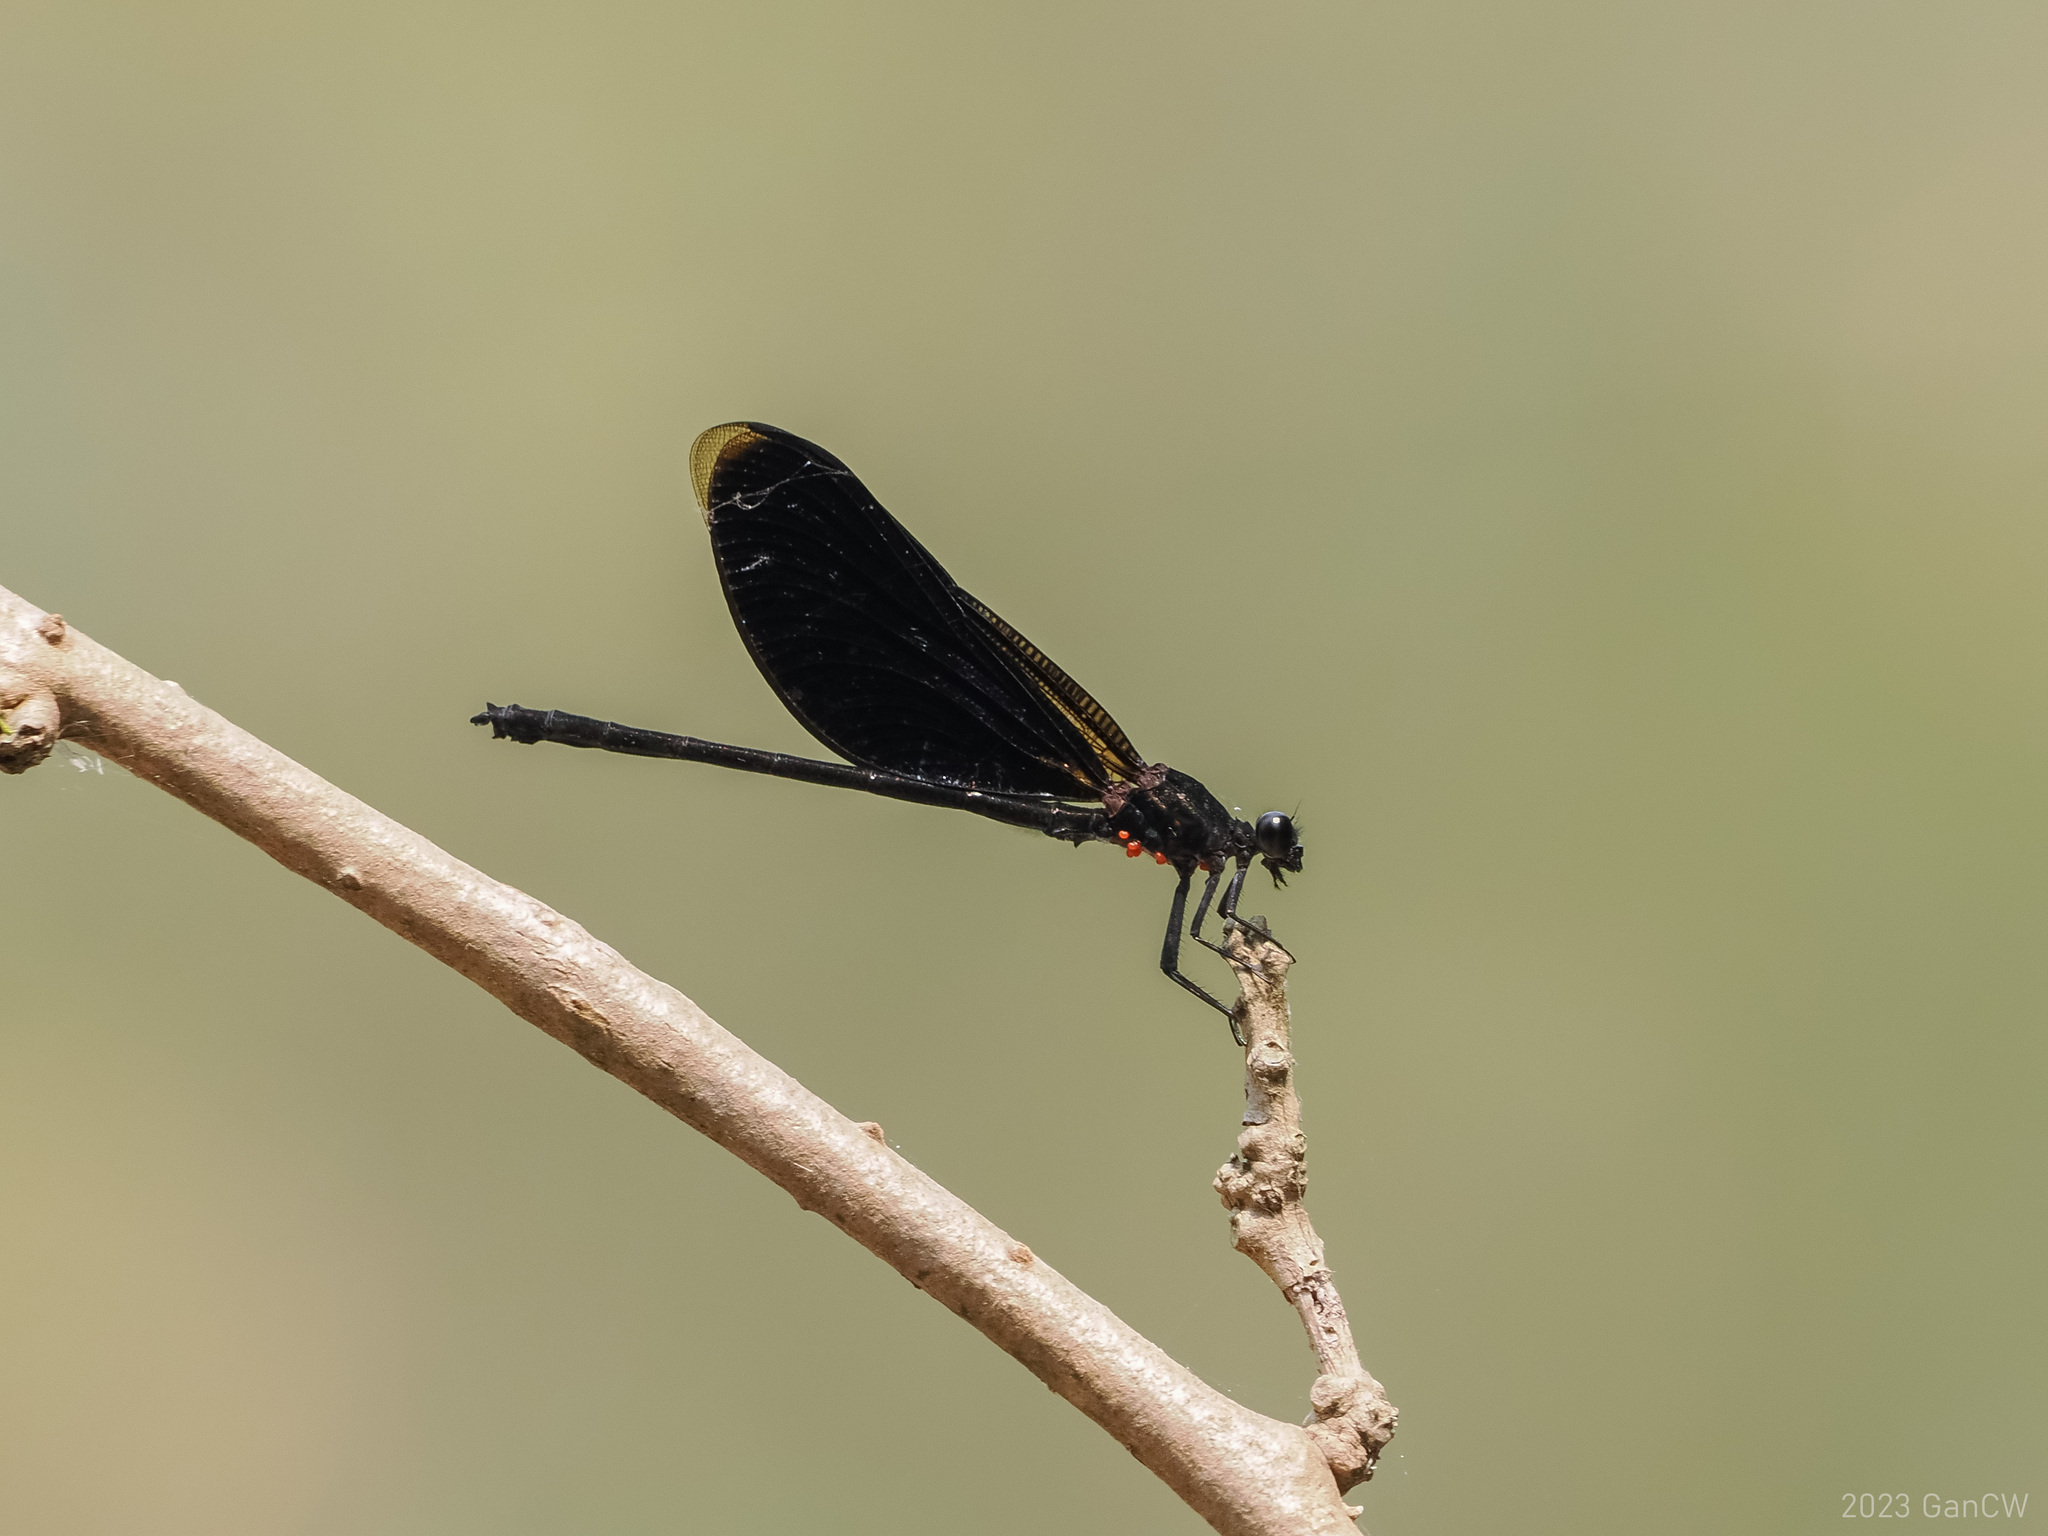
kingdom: Animalia
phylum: Arthropoda
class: Insecta
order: Odonata
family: Euphaeidae
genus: Euphaea
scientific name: Euphaea masoni
